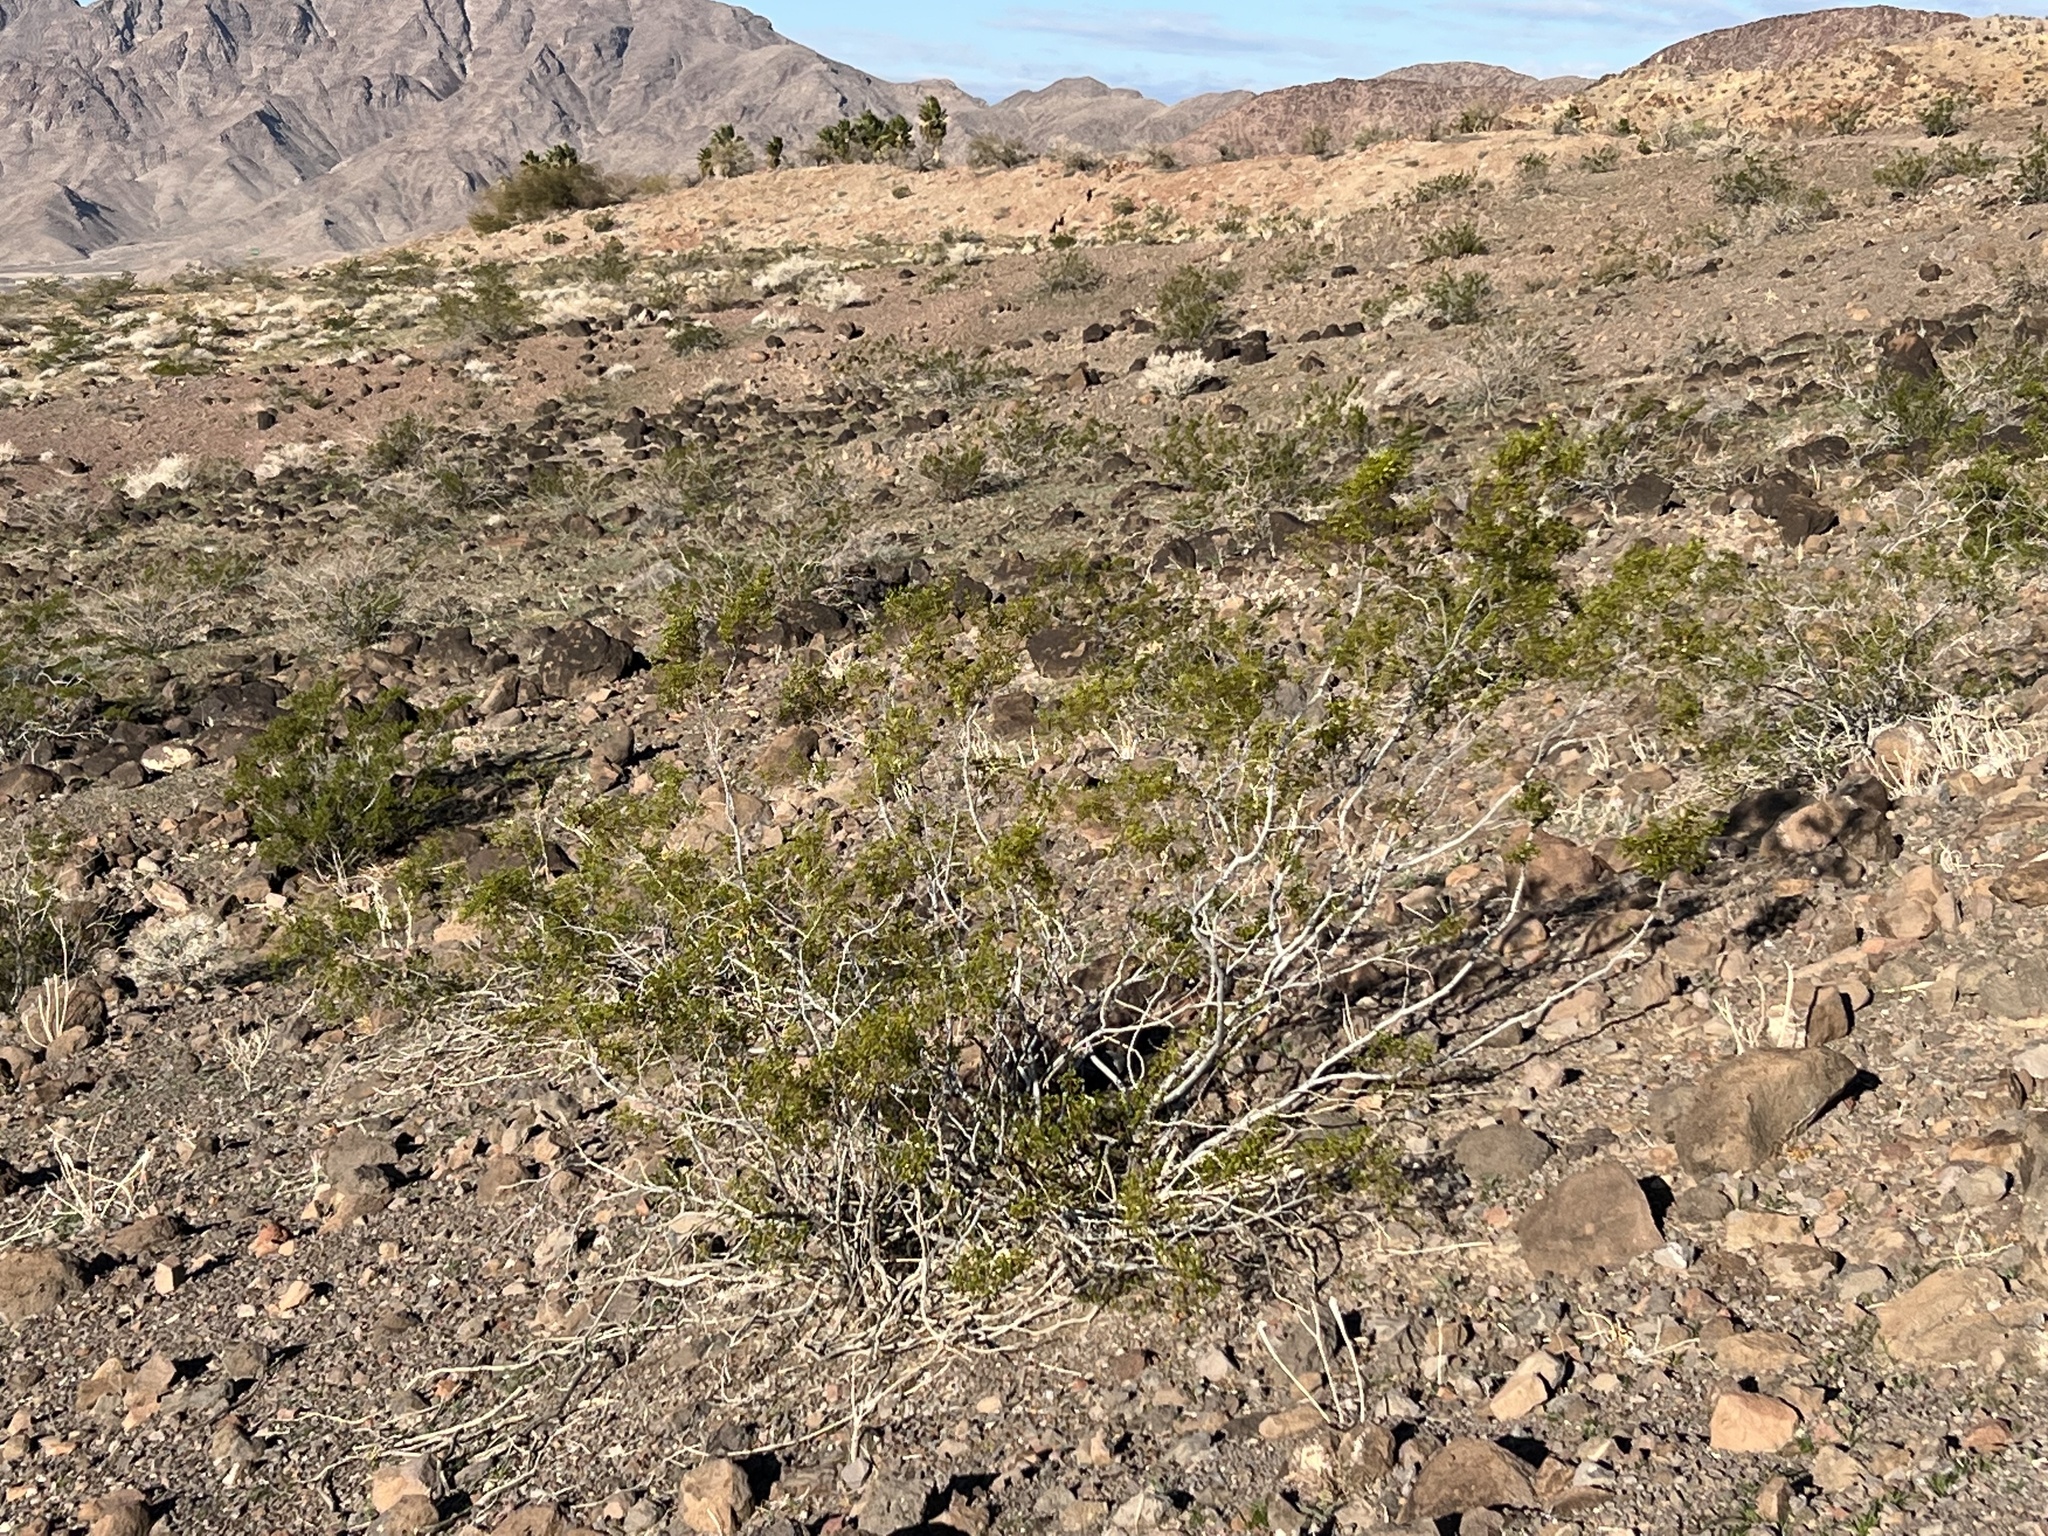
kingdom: Plantae
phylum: Tracheophyta
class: Magnoliopsida
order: Zygophyllales
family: Zygophyllaceae
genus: Larrea
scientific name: Larrea tridentata
